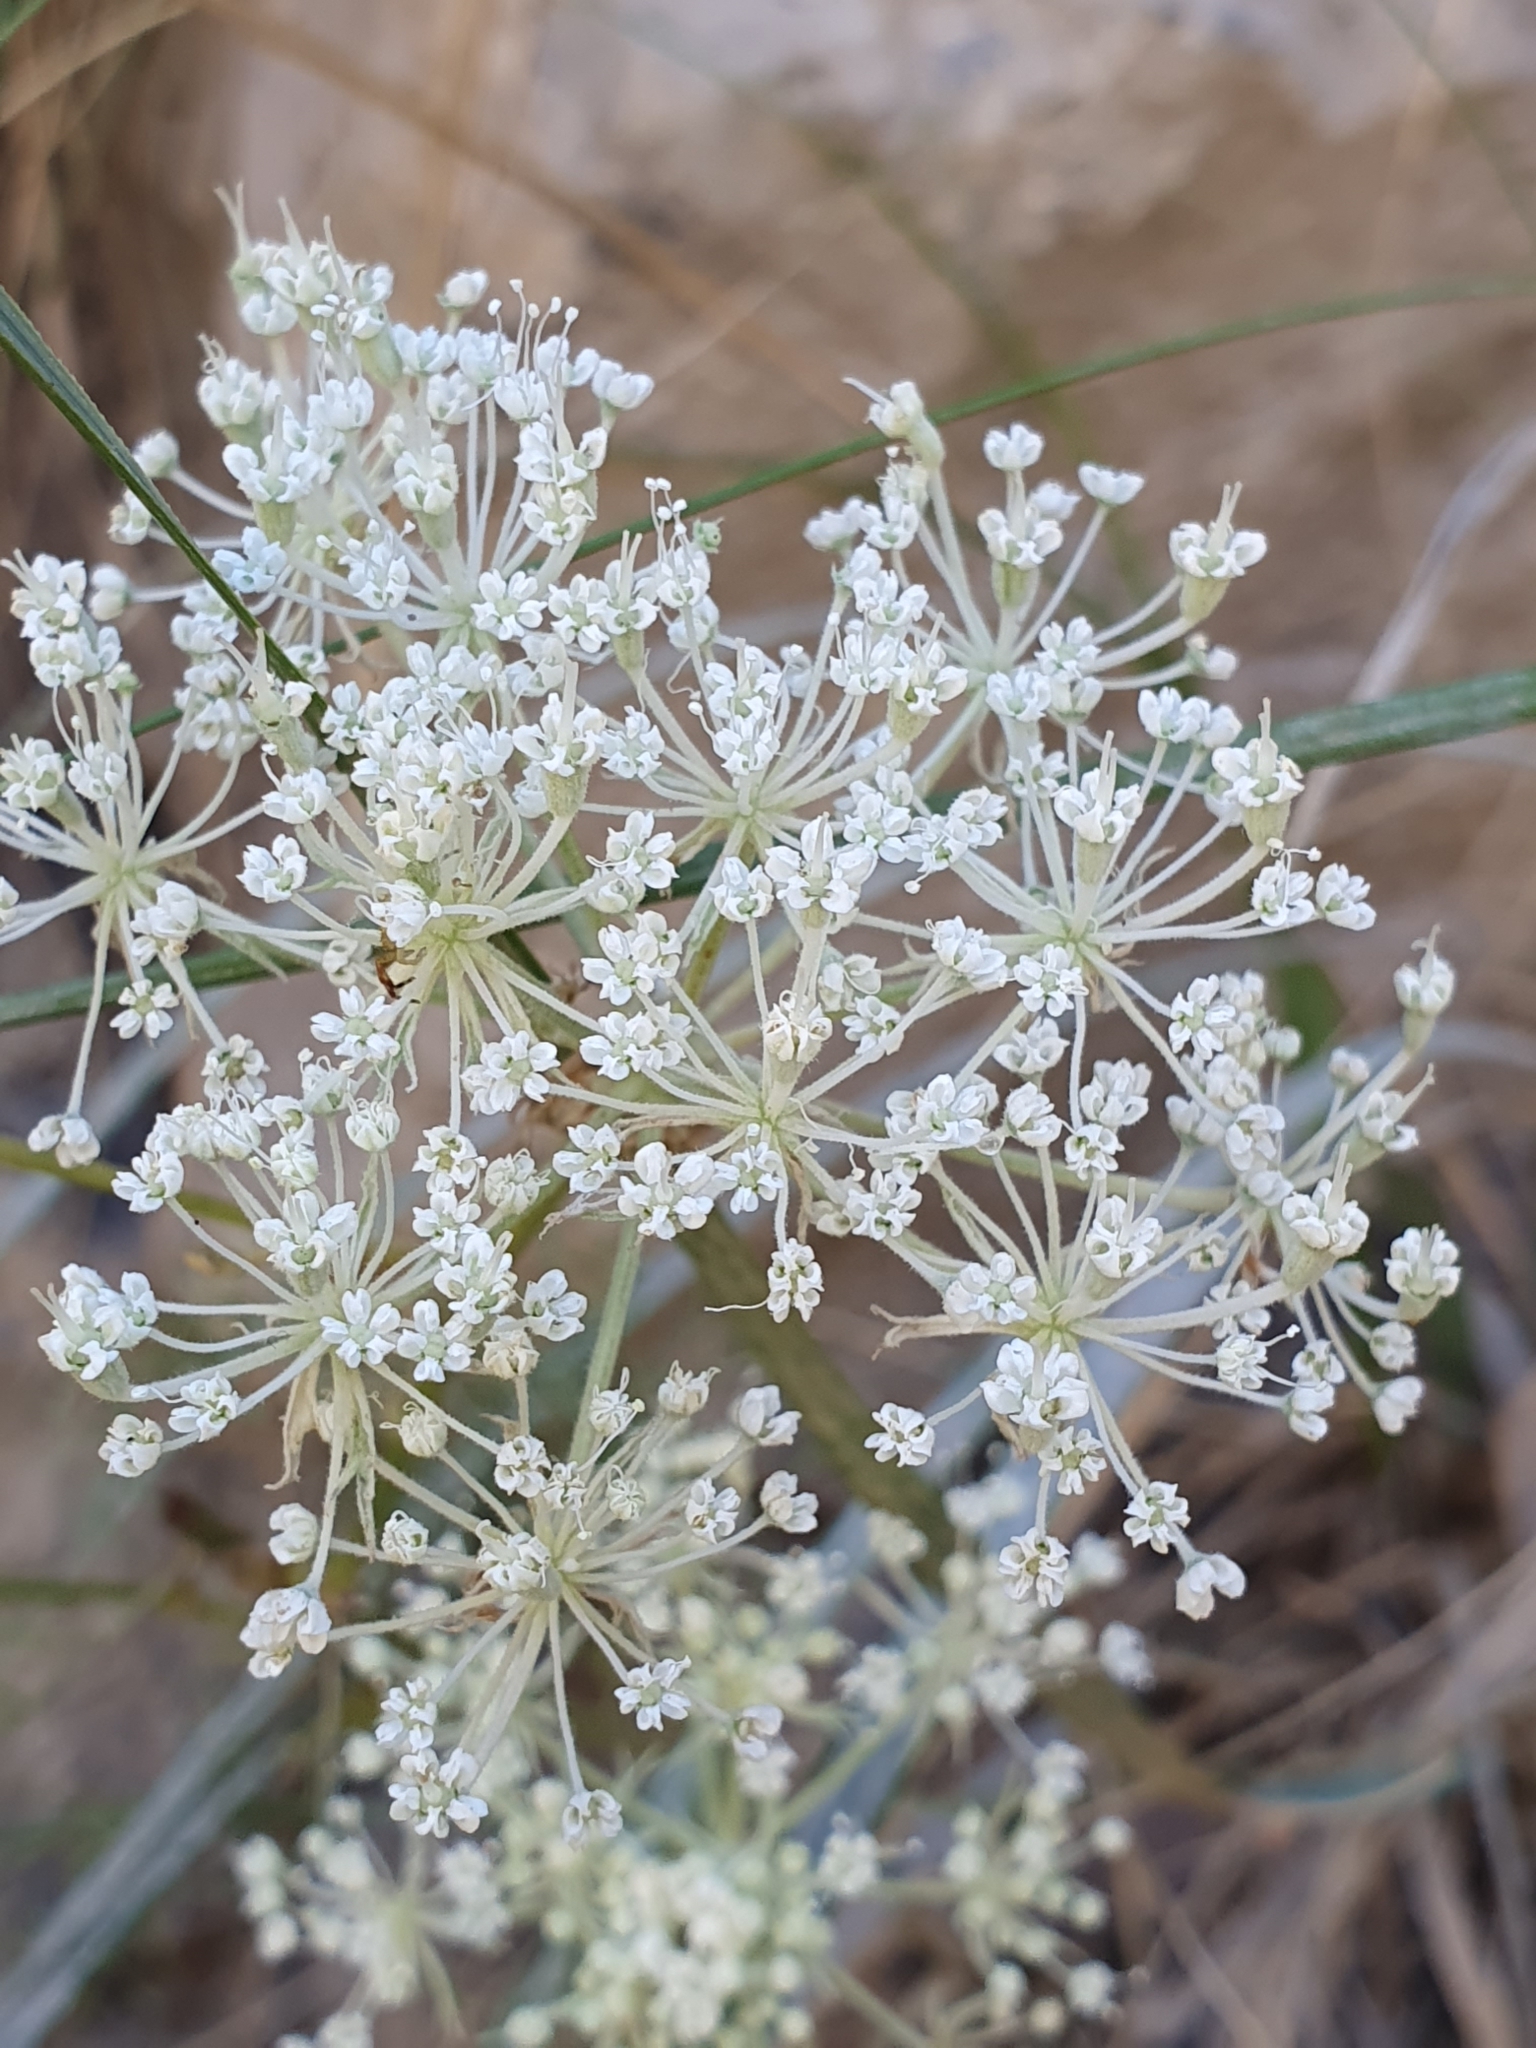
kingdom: Plantae
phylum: Tracheophyta
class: Magnoliopsida
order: Apiales
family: Apiaceae
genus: Daucus
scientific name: Daucus setifolius
